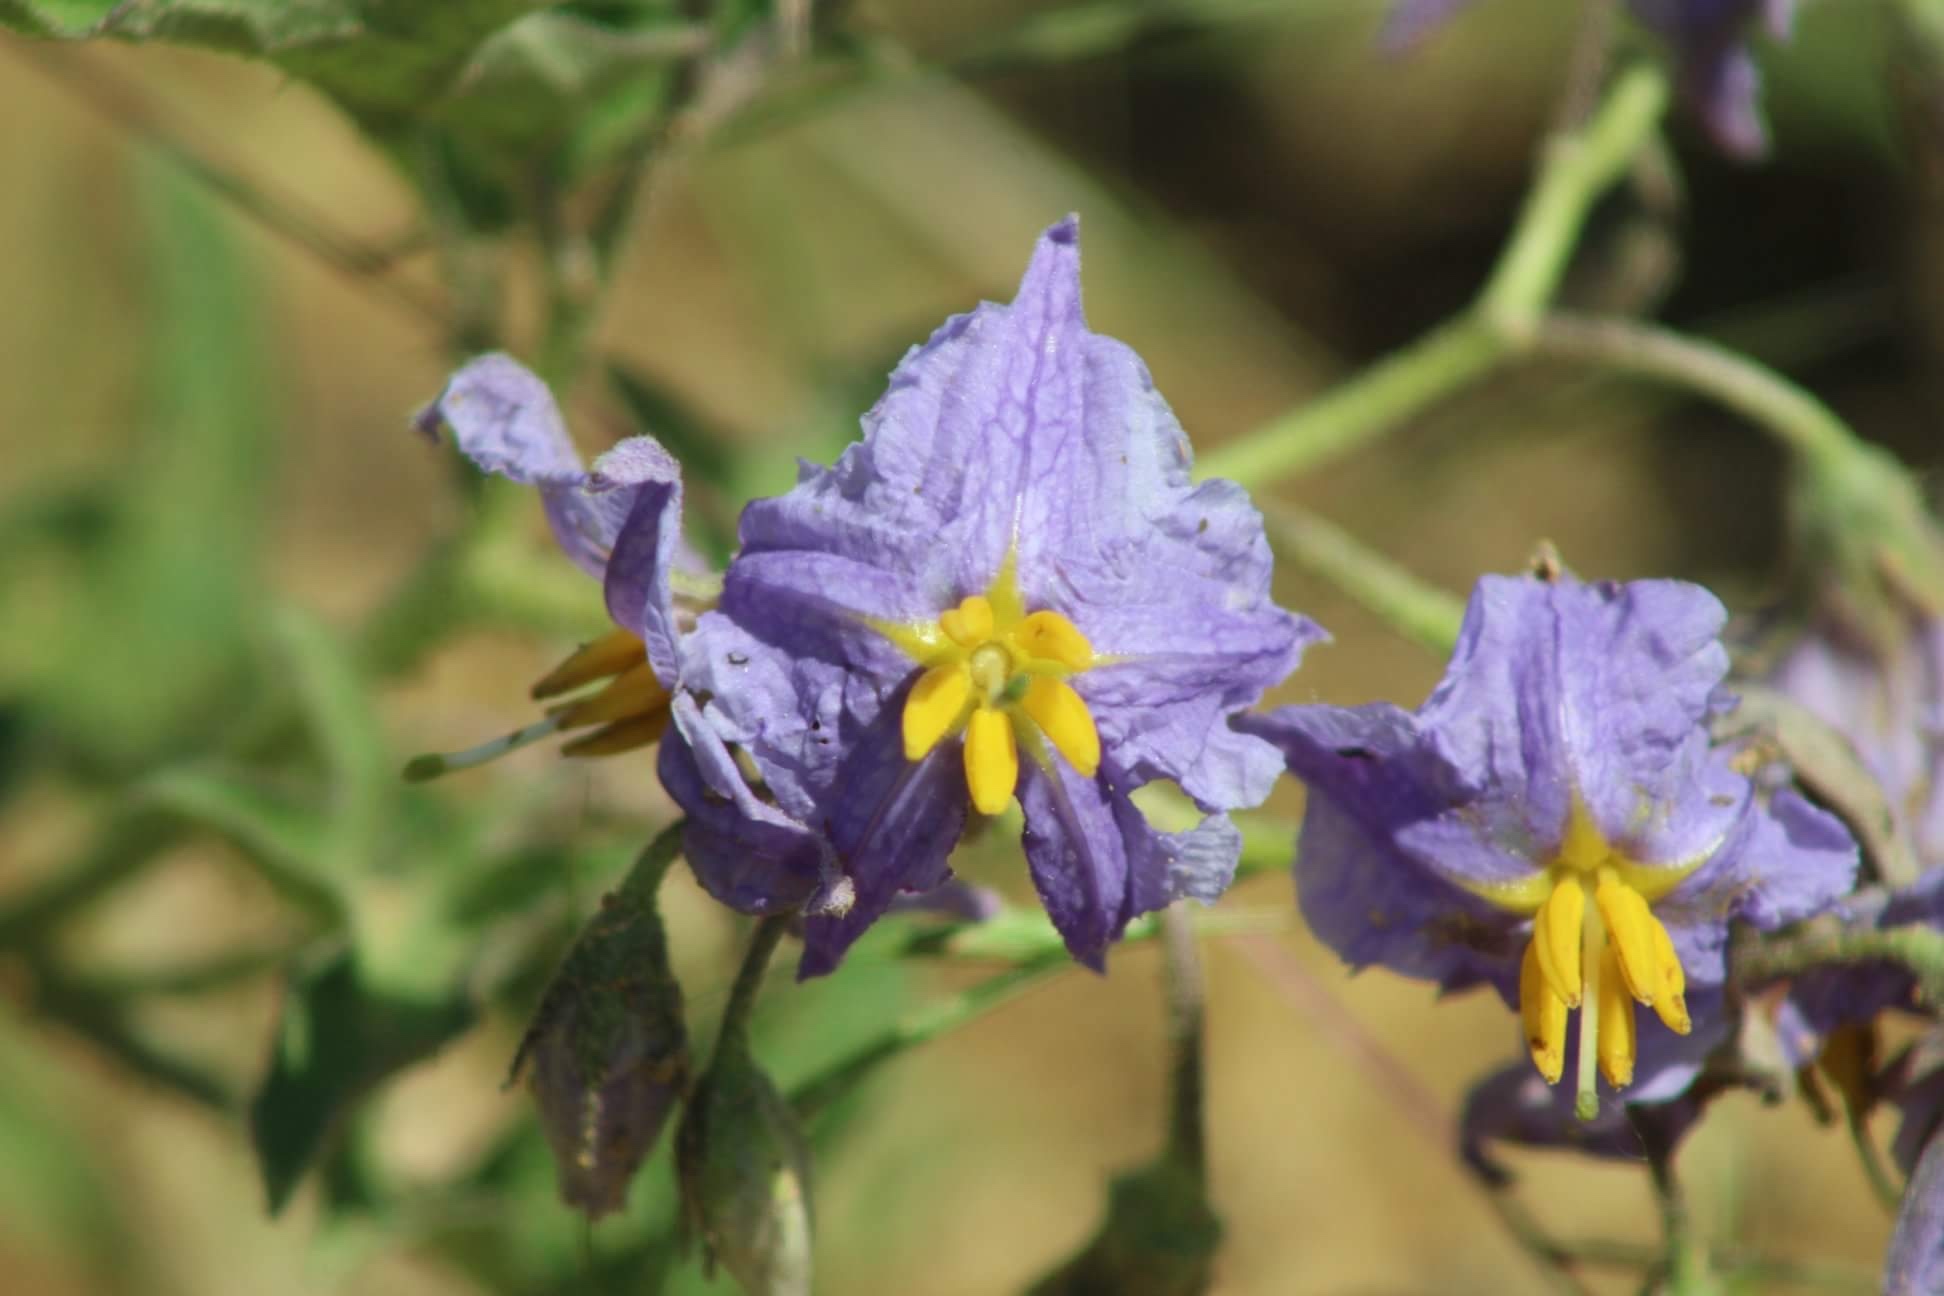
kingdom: Plantae
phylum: Tracheophyta
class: Magnoliopsida
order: Solanales
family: Solanaceae
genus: Solanum
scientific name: Solanum dimidiatum
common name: Carolina horse-nettle
